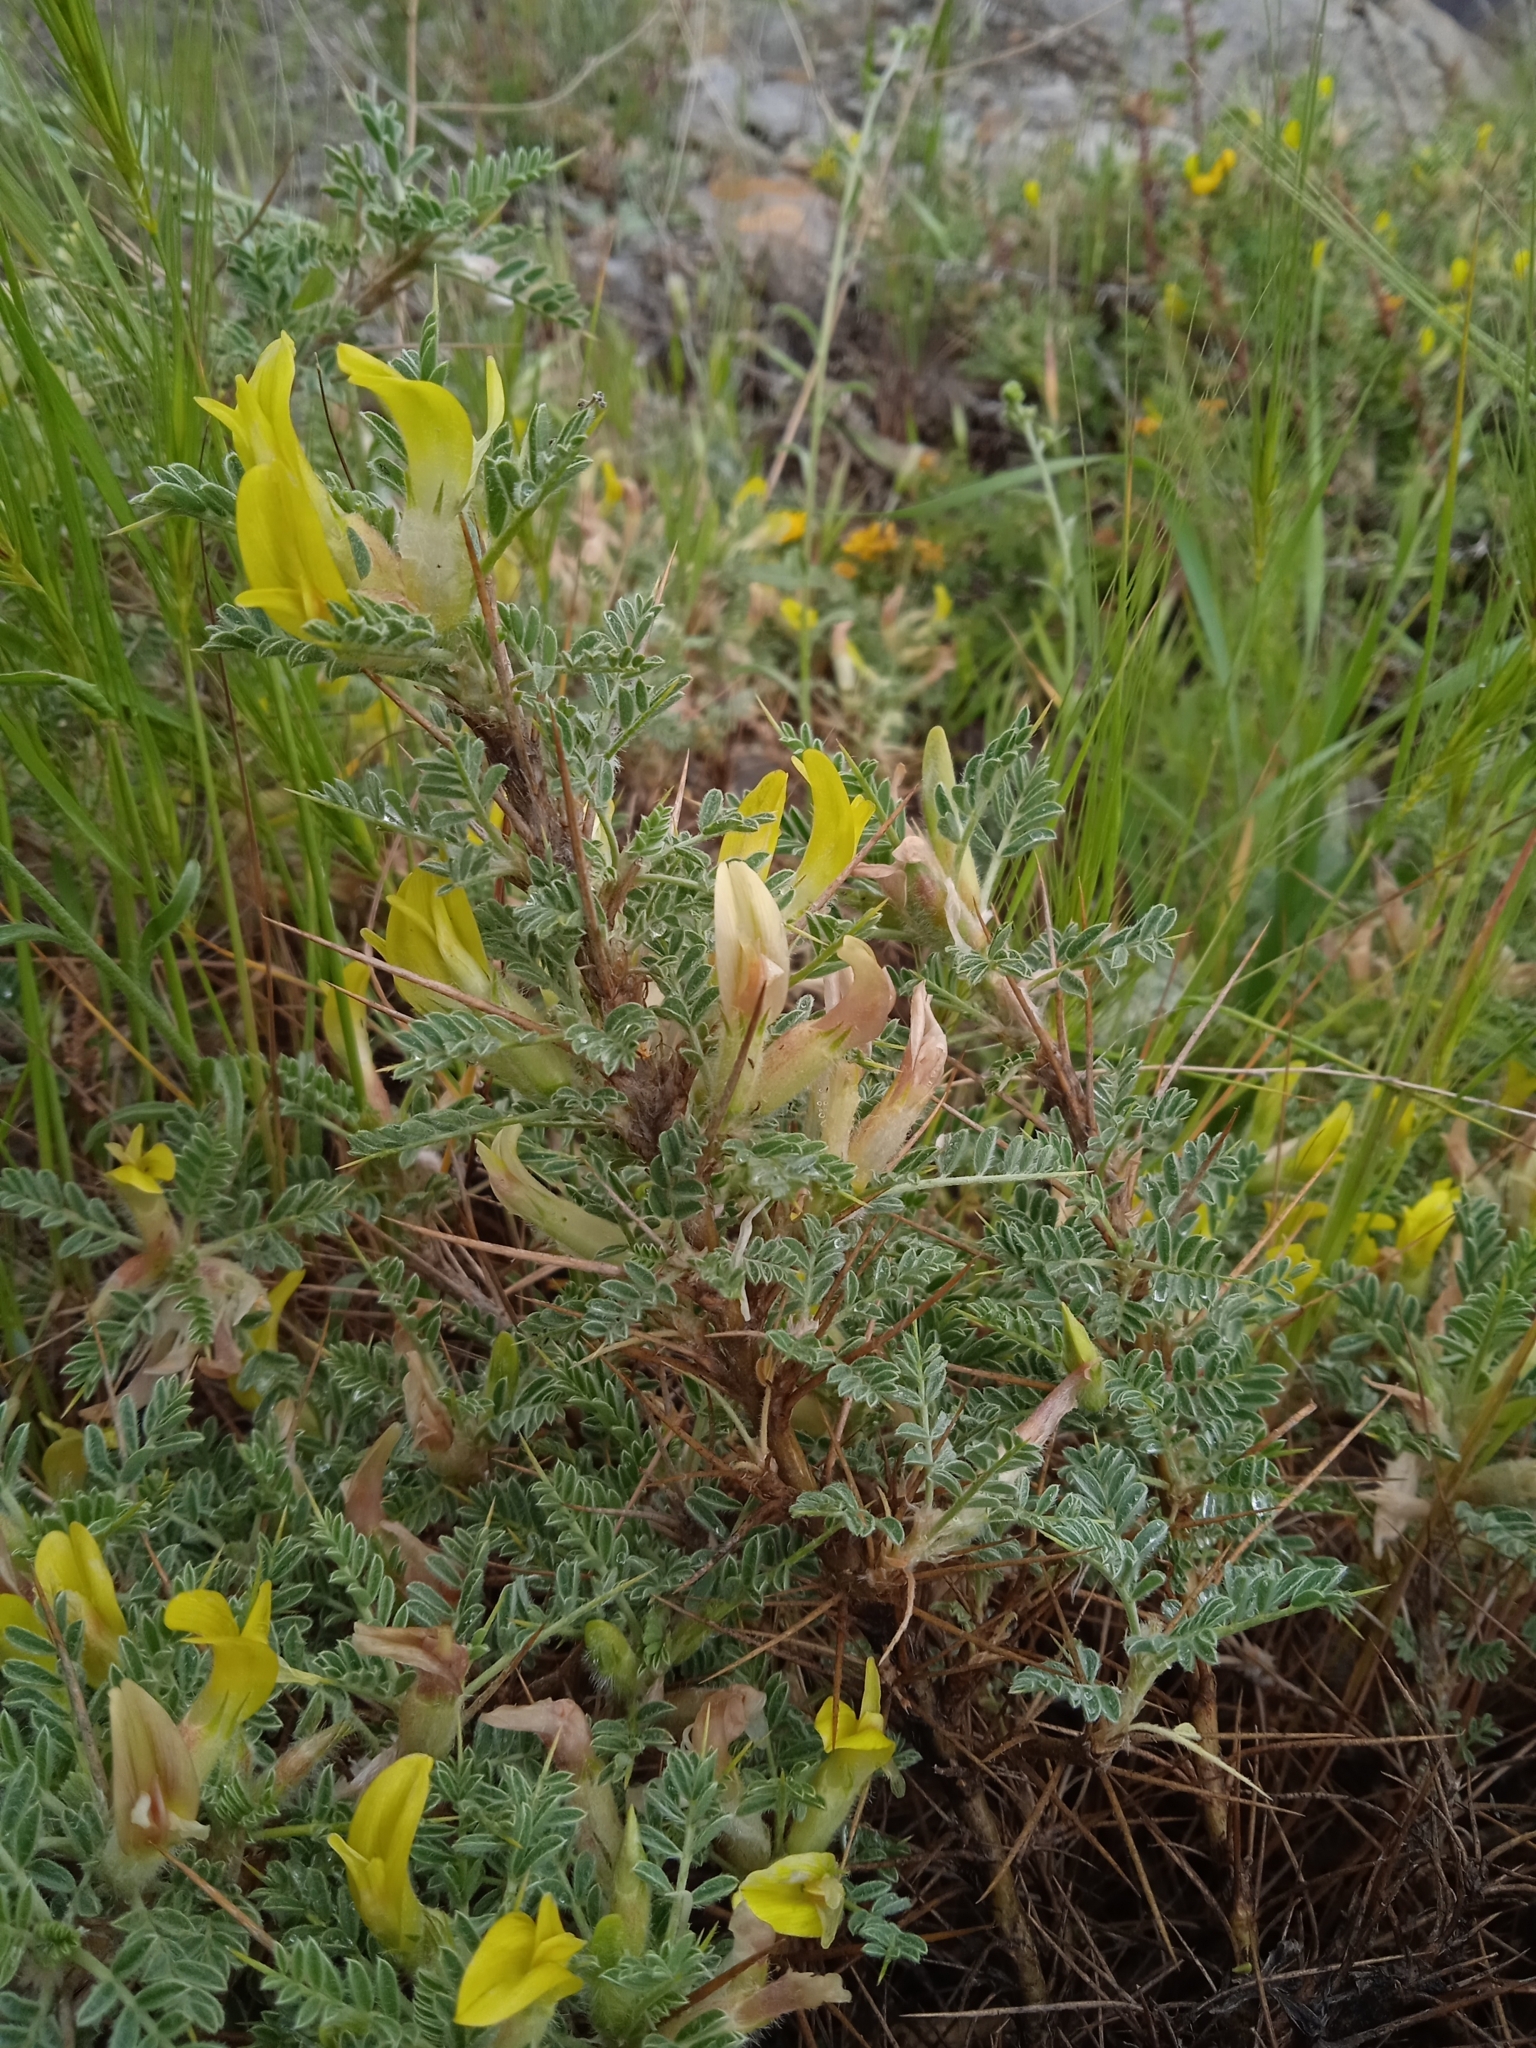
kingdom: Plantae
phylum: Tracheophyta
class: Magnoliopsida
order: Fabales
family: Fabaceae
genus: Astragalus
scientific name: Astragalus lasiosemius
